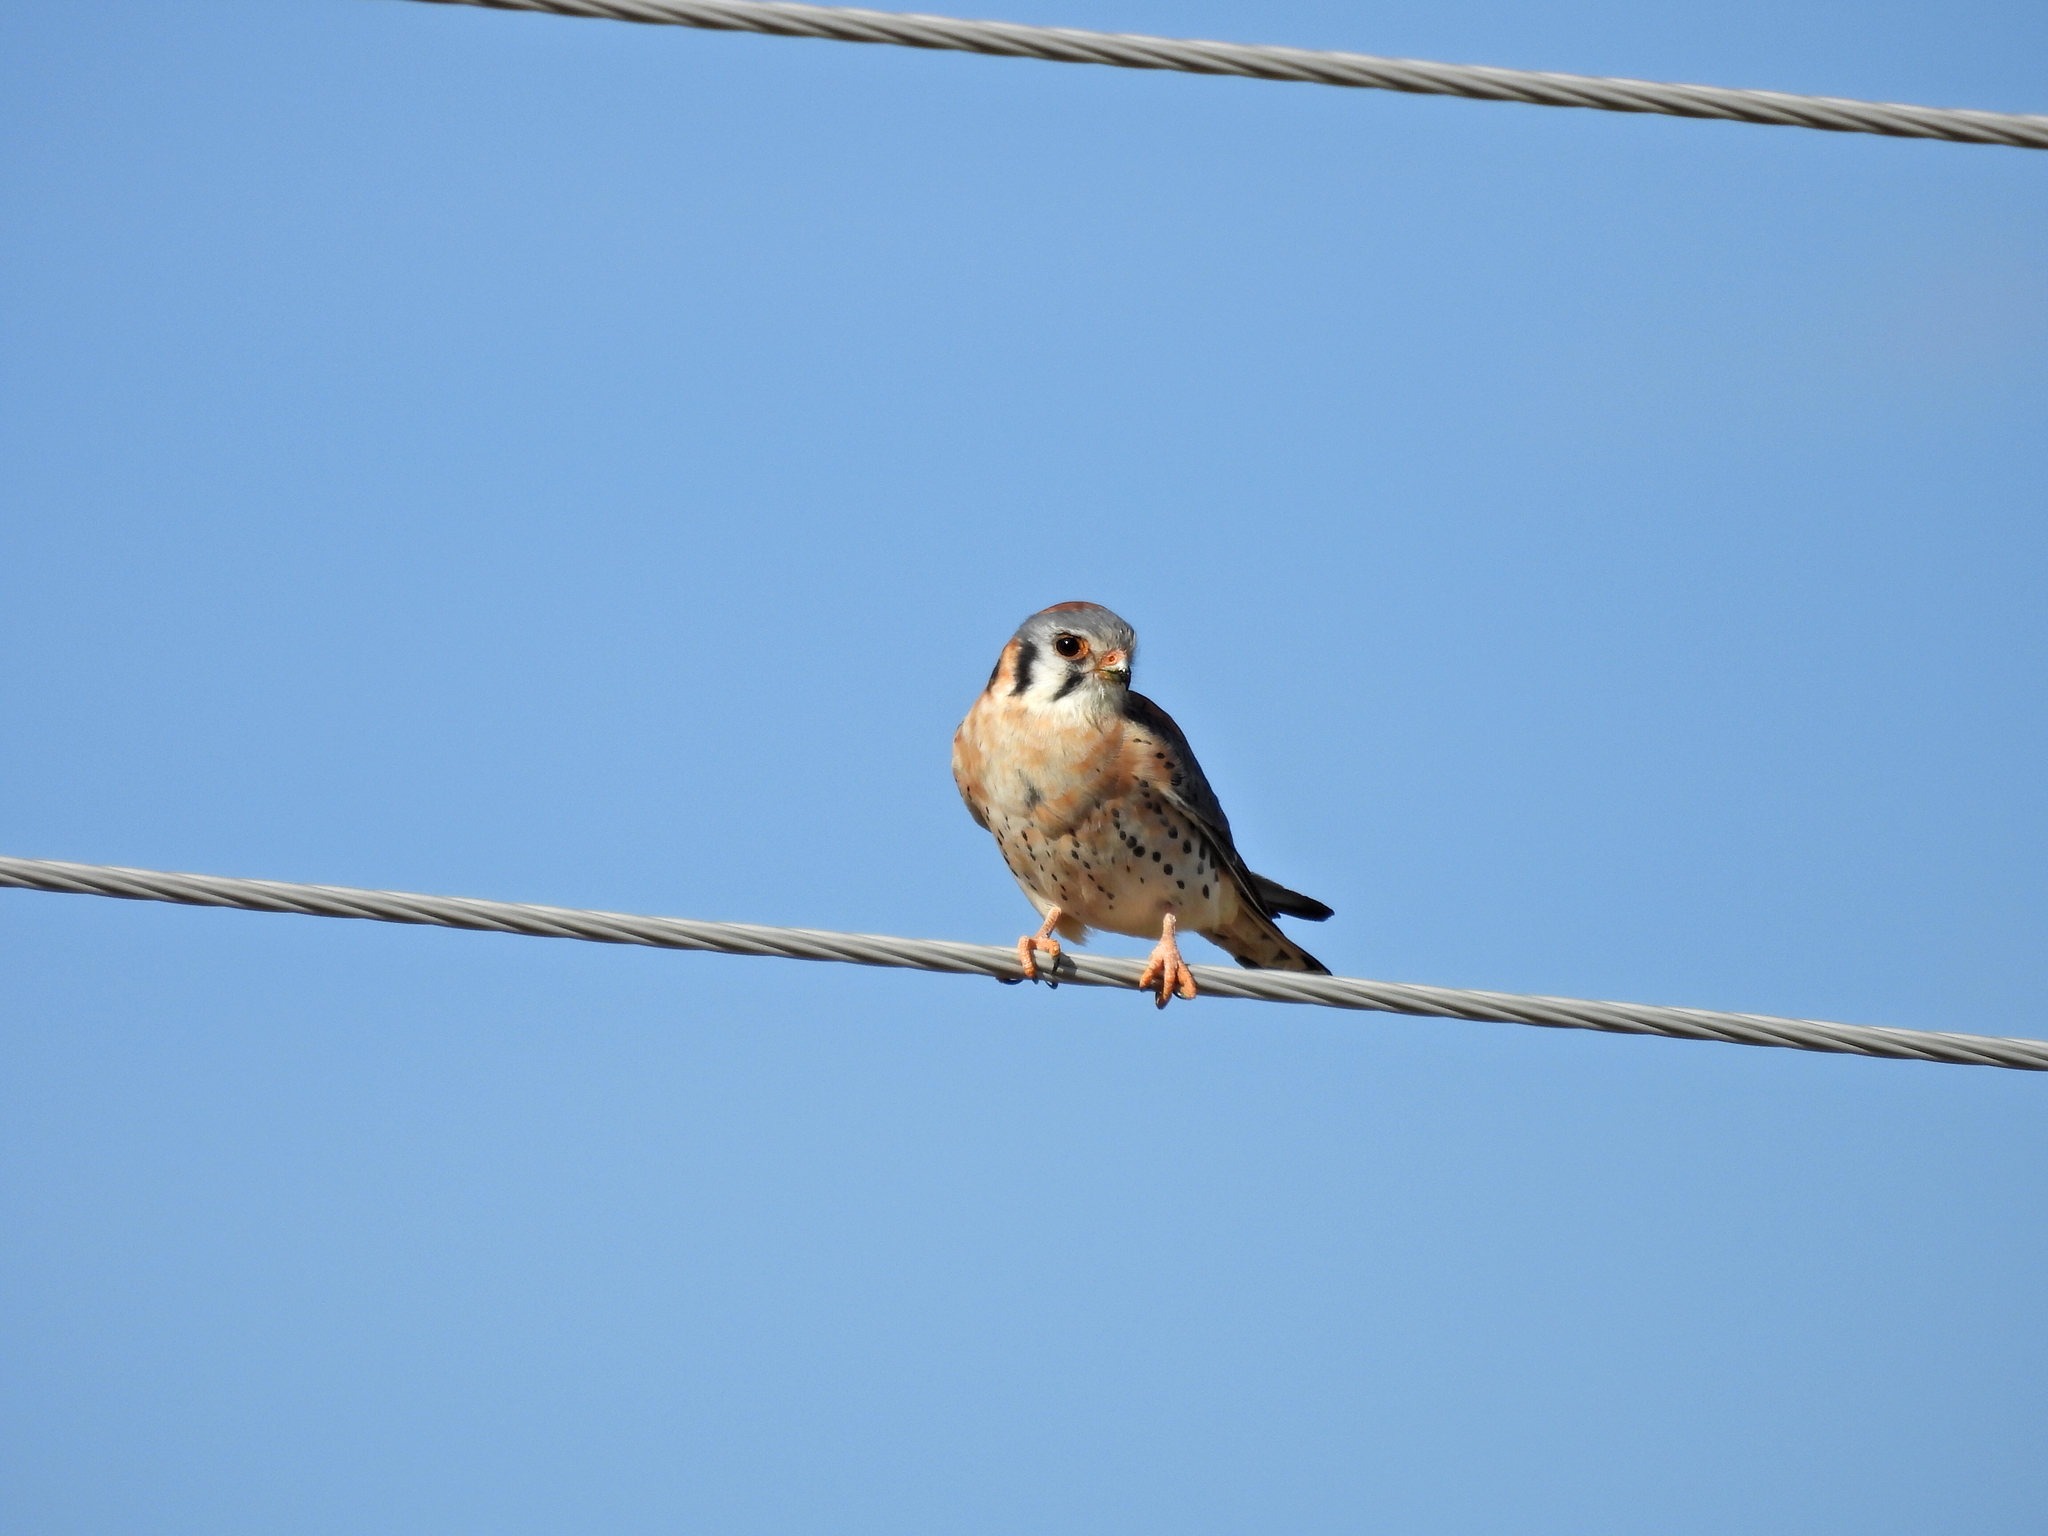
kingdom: Animalia
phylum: Chordata
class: Aves
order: Falconiformes
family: Falconidae
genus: Falco
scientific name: Falco sparverius
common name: American kestrel
